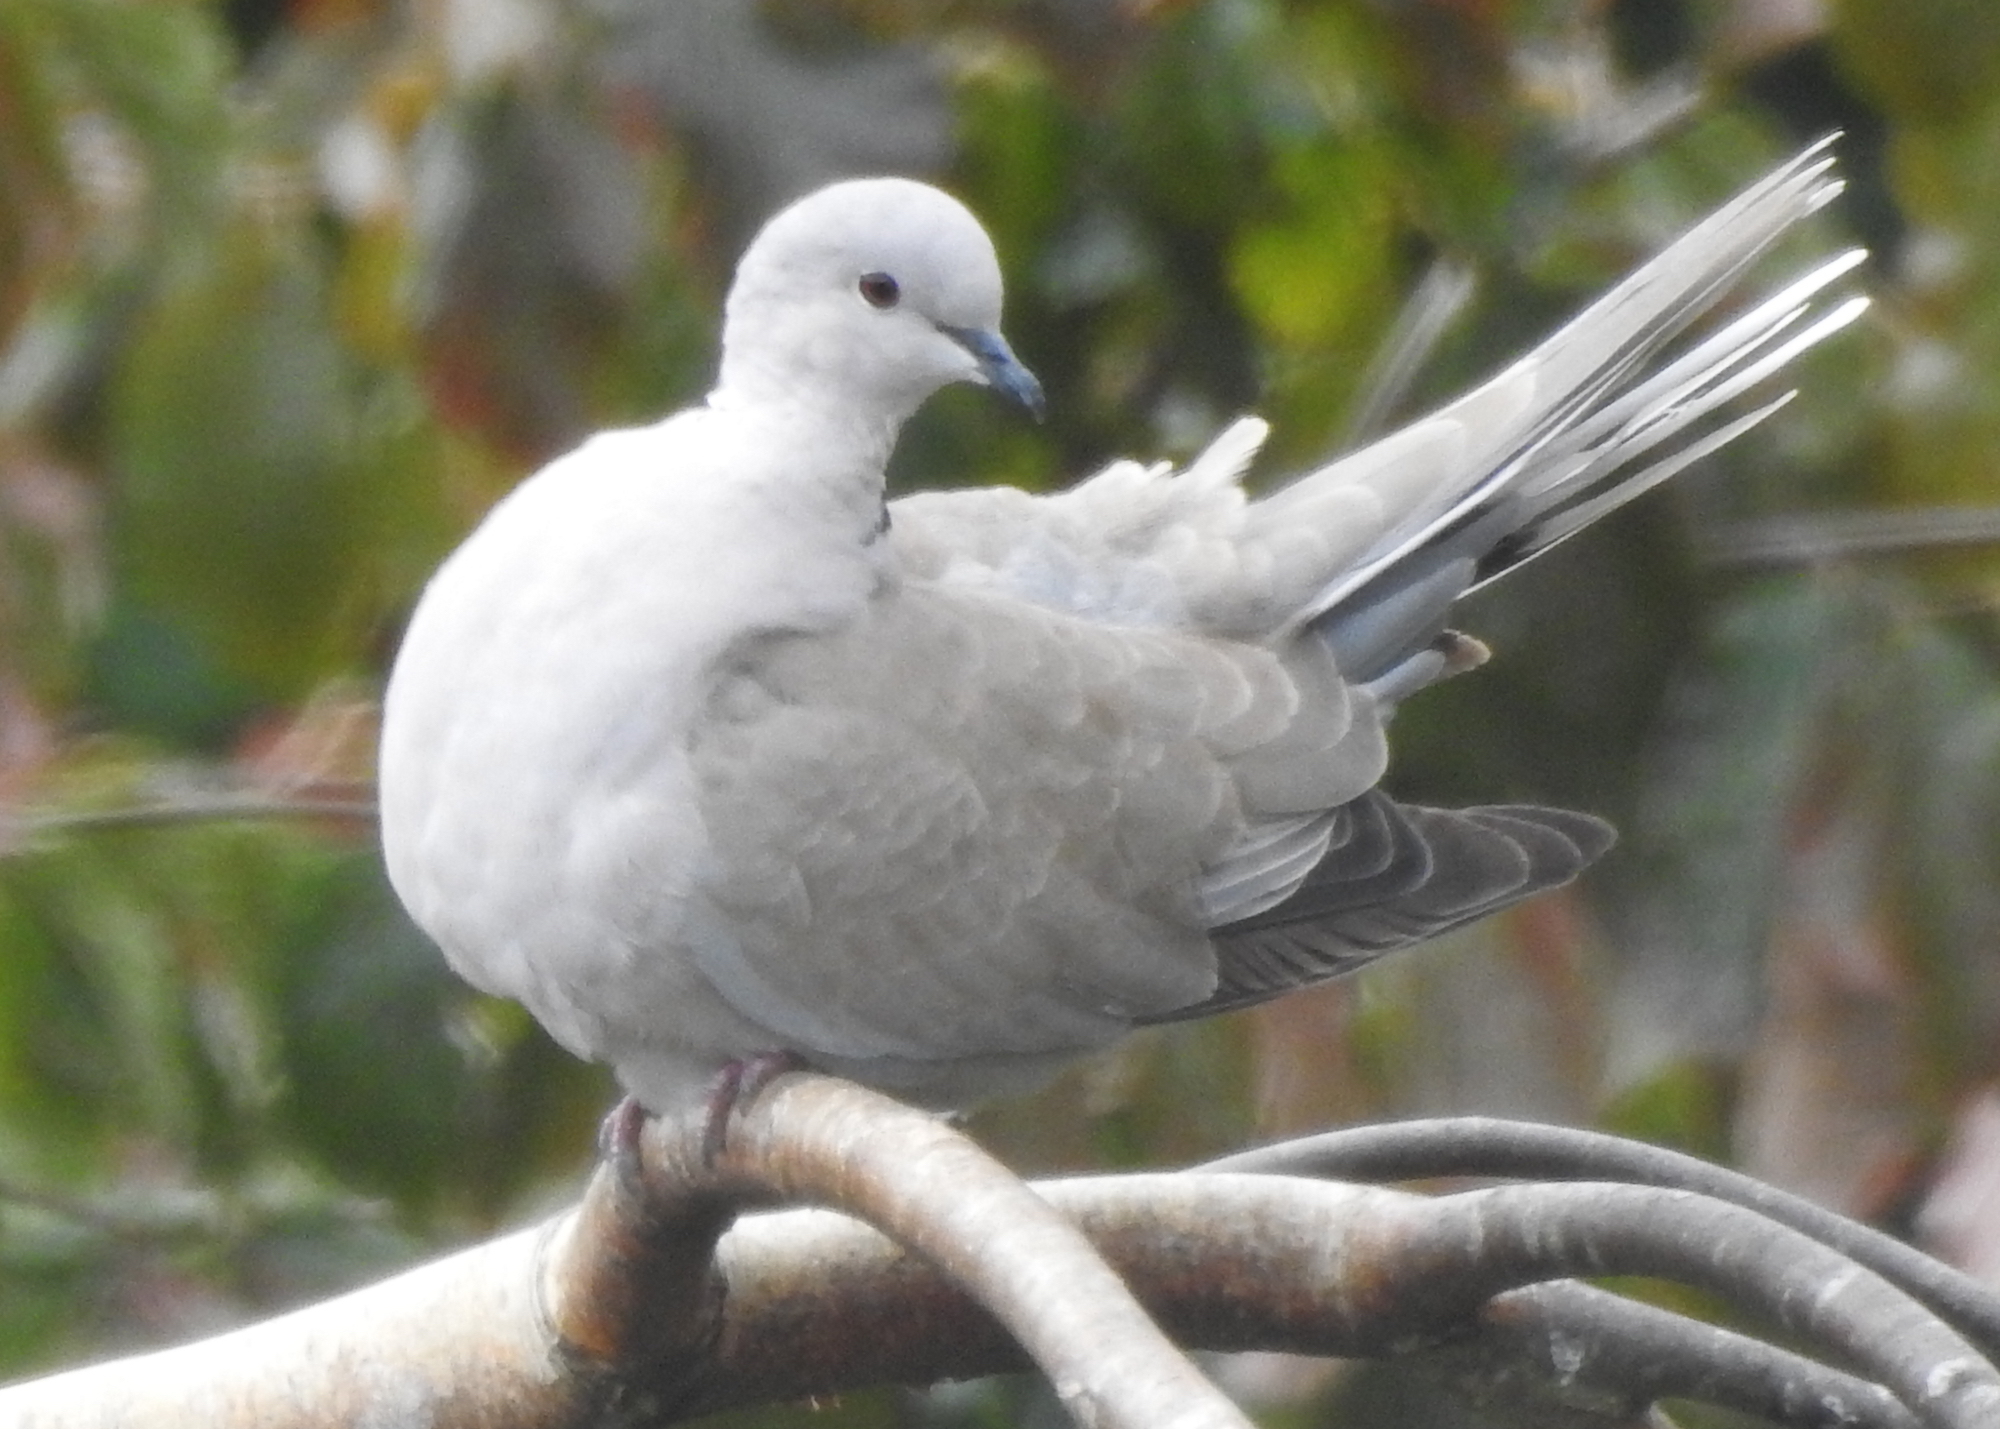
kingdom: Animalia
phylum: Chordata
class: Aves
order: Columbiformes
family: Columbidae
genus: Streptopelia
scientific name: Streptopelia decaocto
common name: Eurasian collared dove
